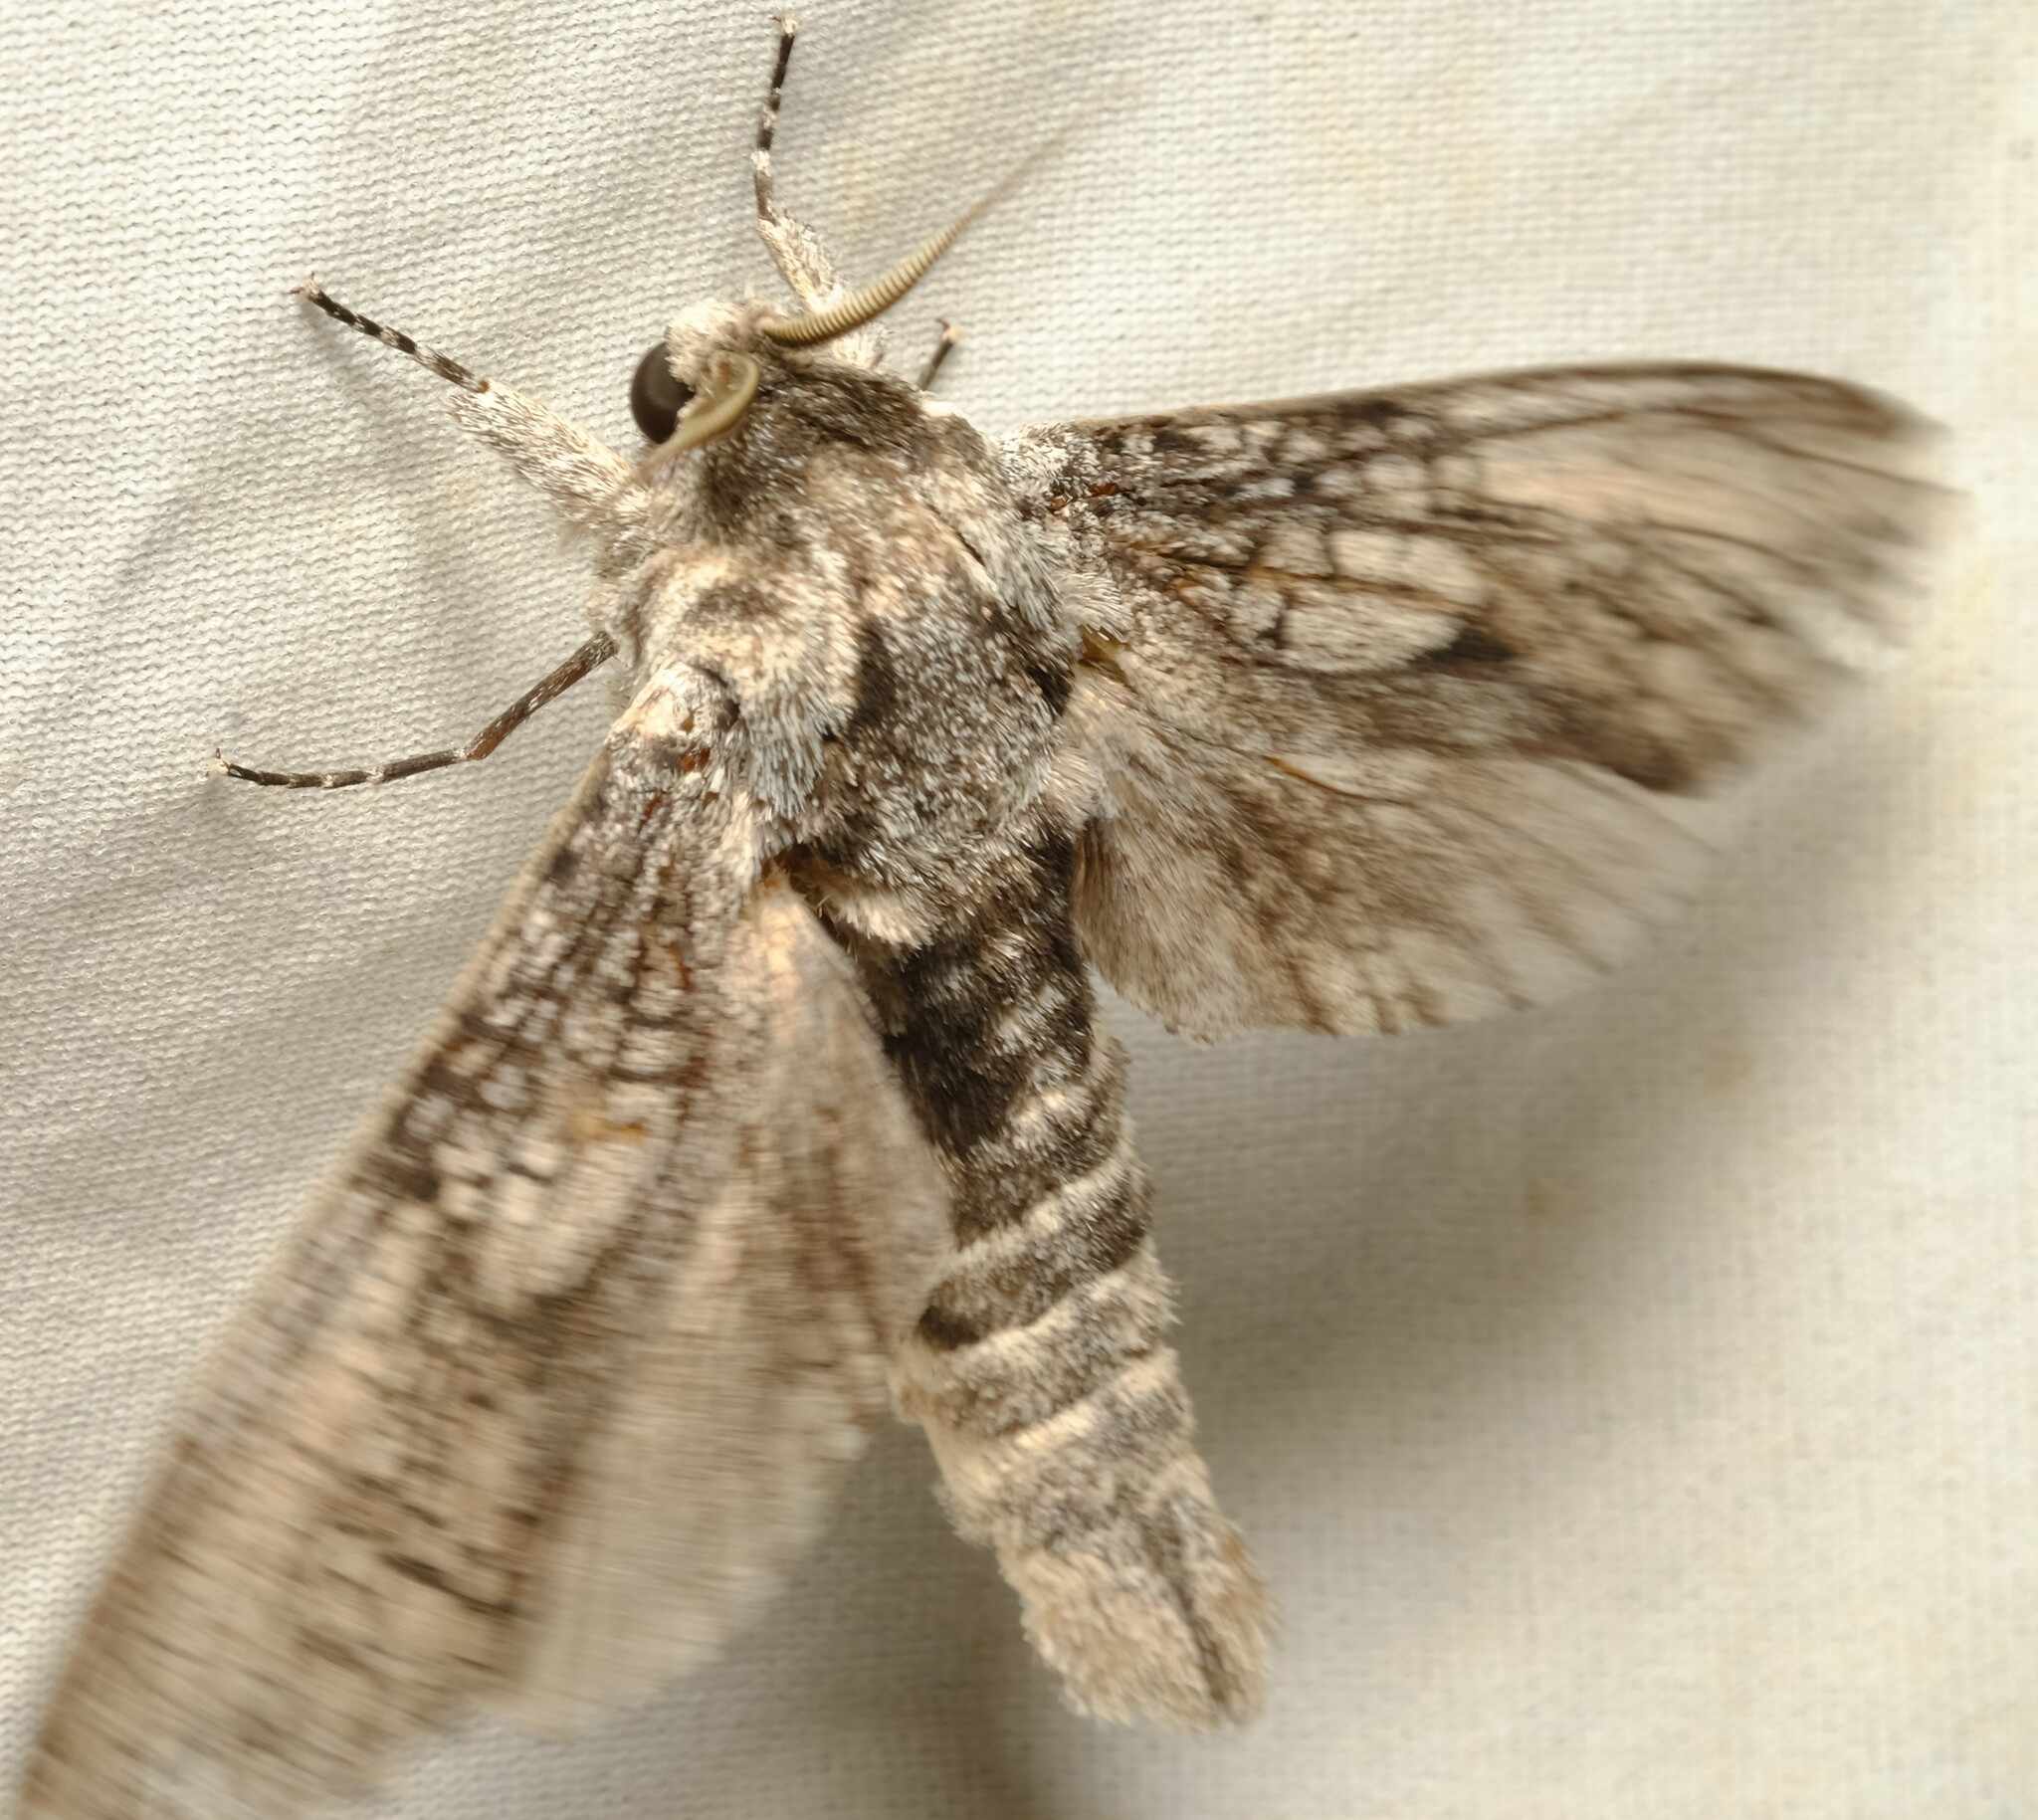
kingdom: Animalia
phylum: Arthropoda
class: Insecta
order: Lepidoptera
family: Cossidae
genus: Endoxyla
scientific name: Endoxyla lichenea
